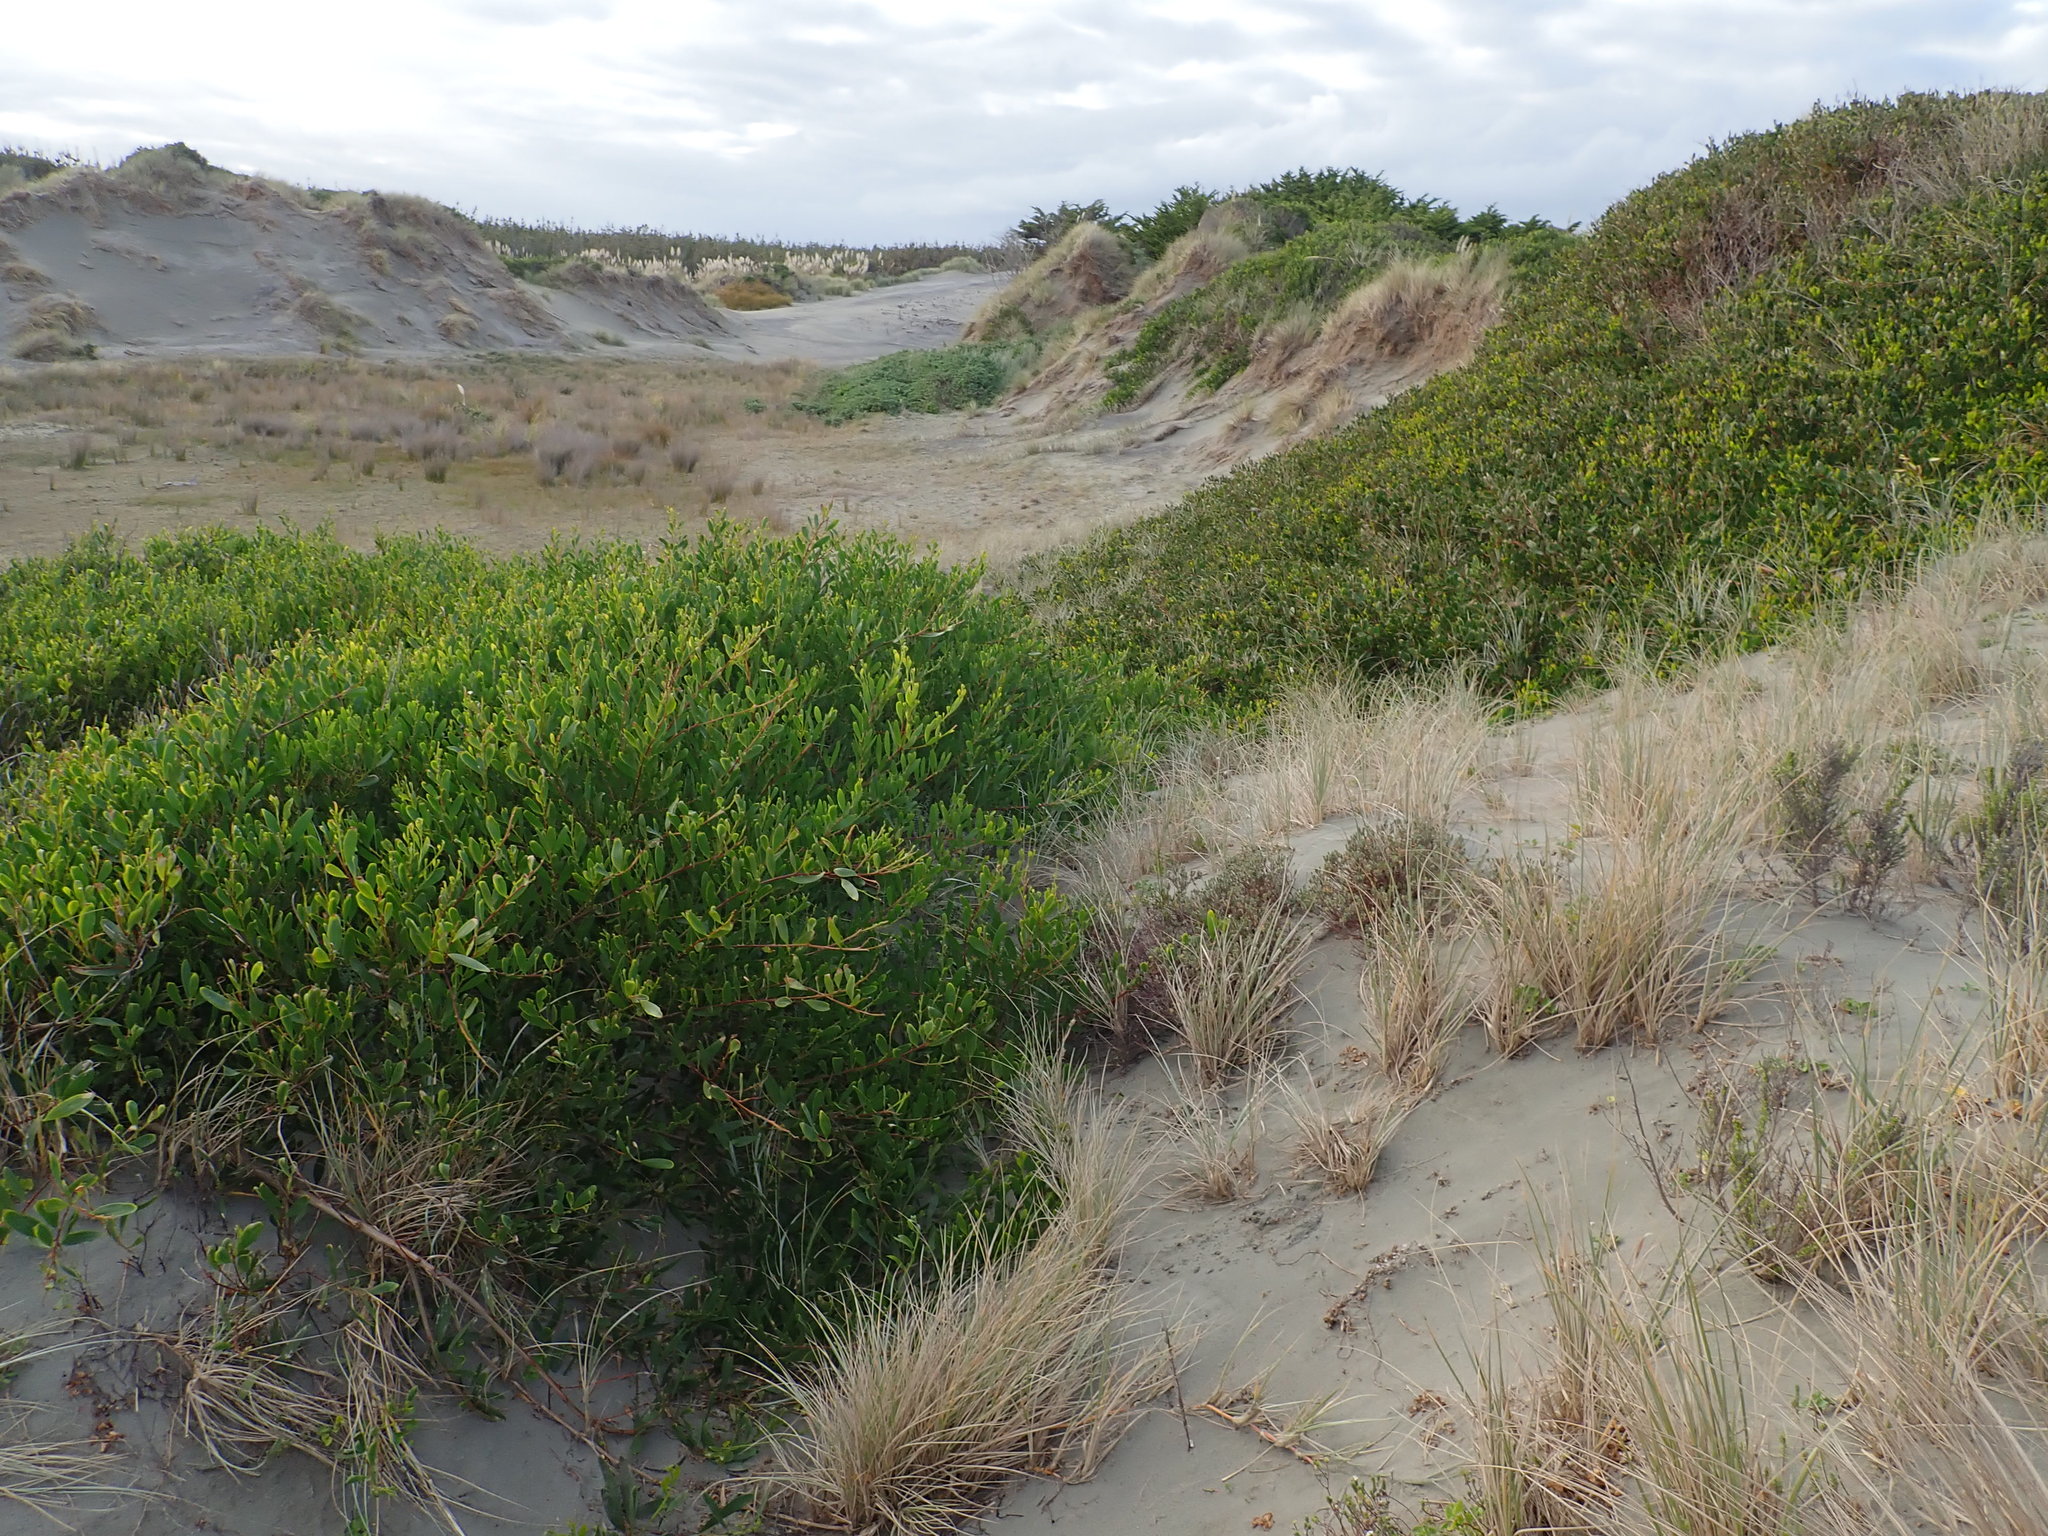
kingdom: Plantae
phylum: Tracheophyta
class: Magnoliopsida
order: Malvales
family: Thymelaeaceae
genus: Pimelea
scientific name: Pimelea villosa
